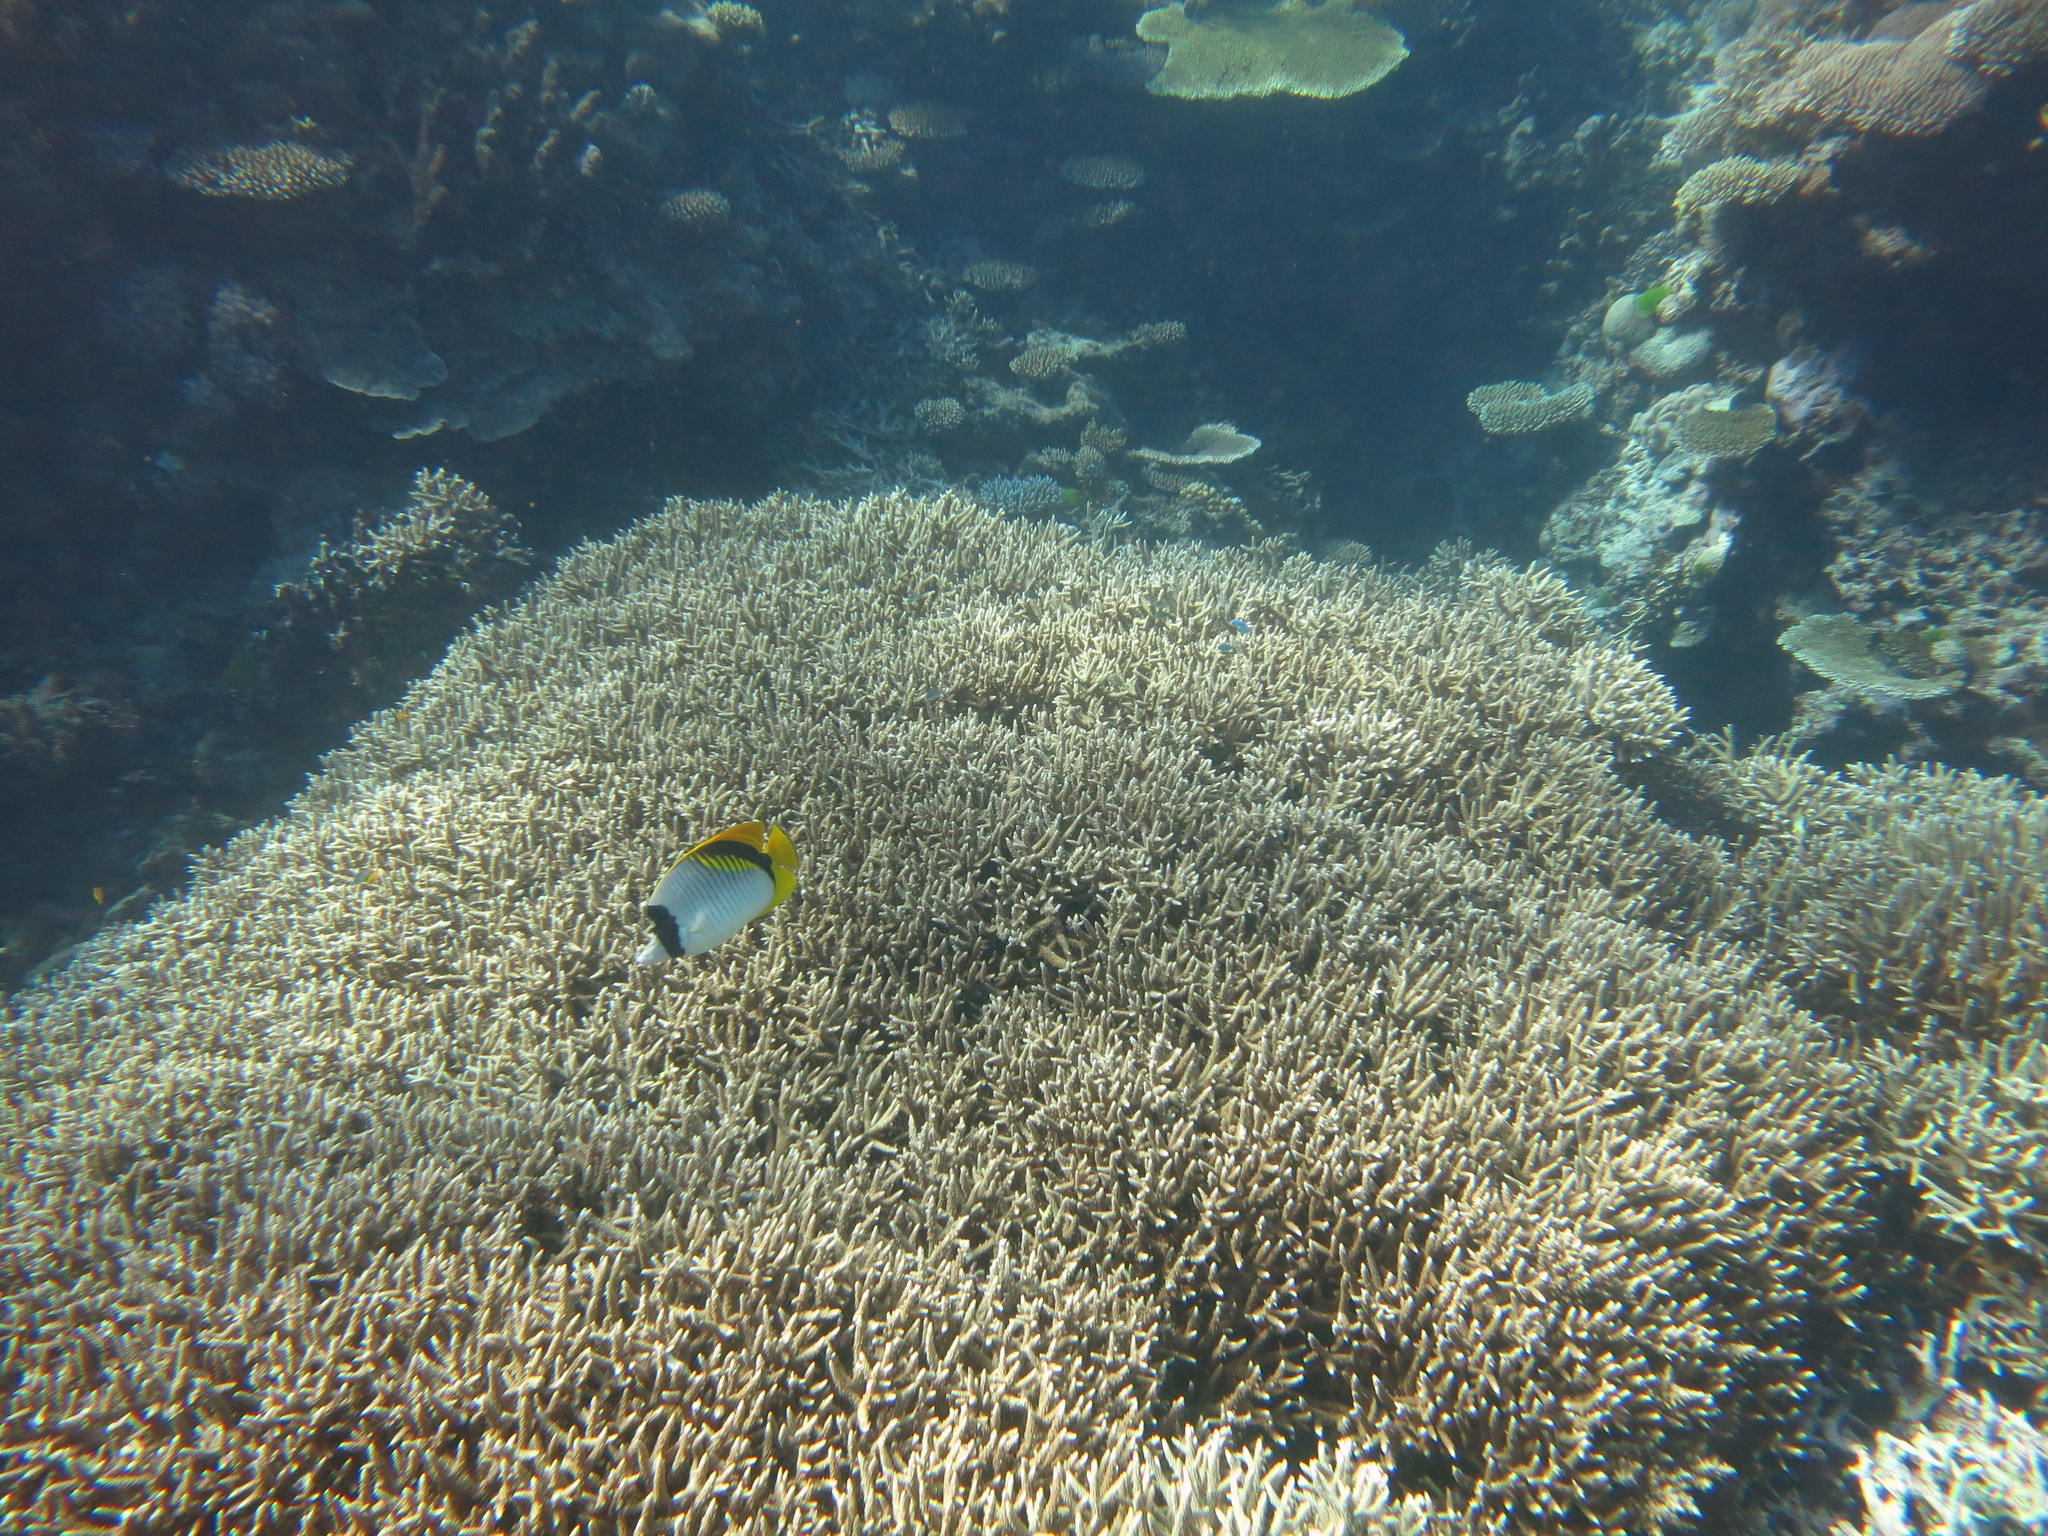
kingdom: Animalia
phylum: Chordata
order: Perciformes
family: Chaetodontidae
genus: Chaetodon
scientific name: Chaetodon lineolatus
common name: Lined butterflyfish
